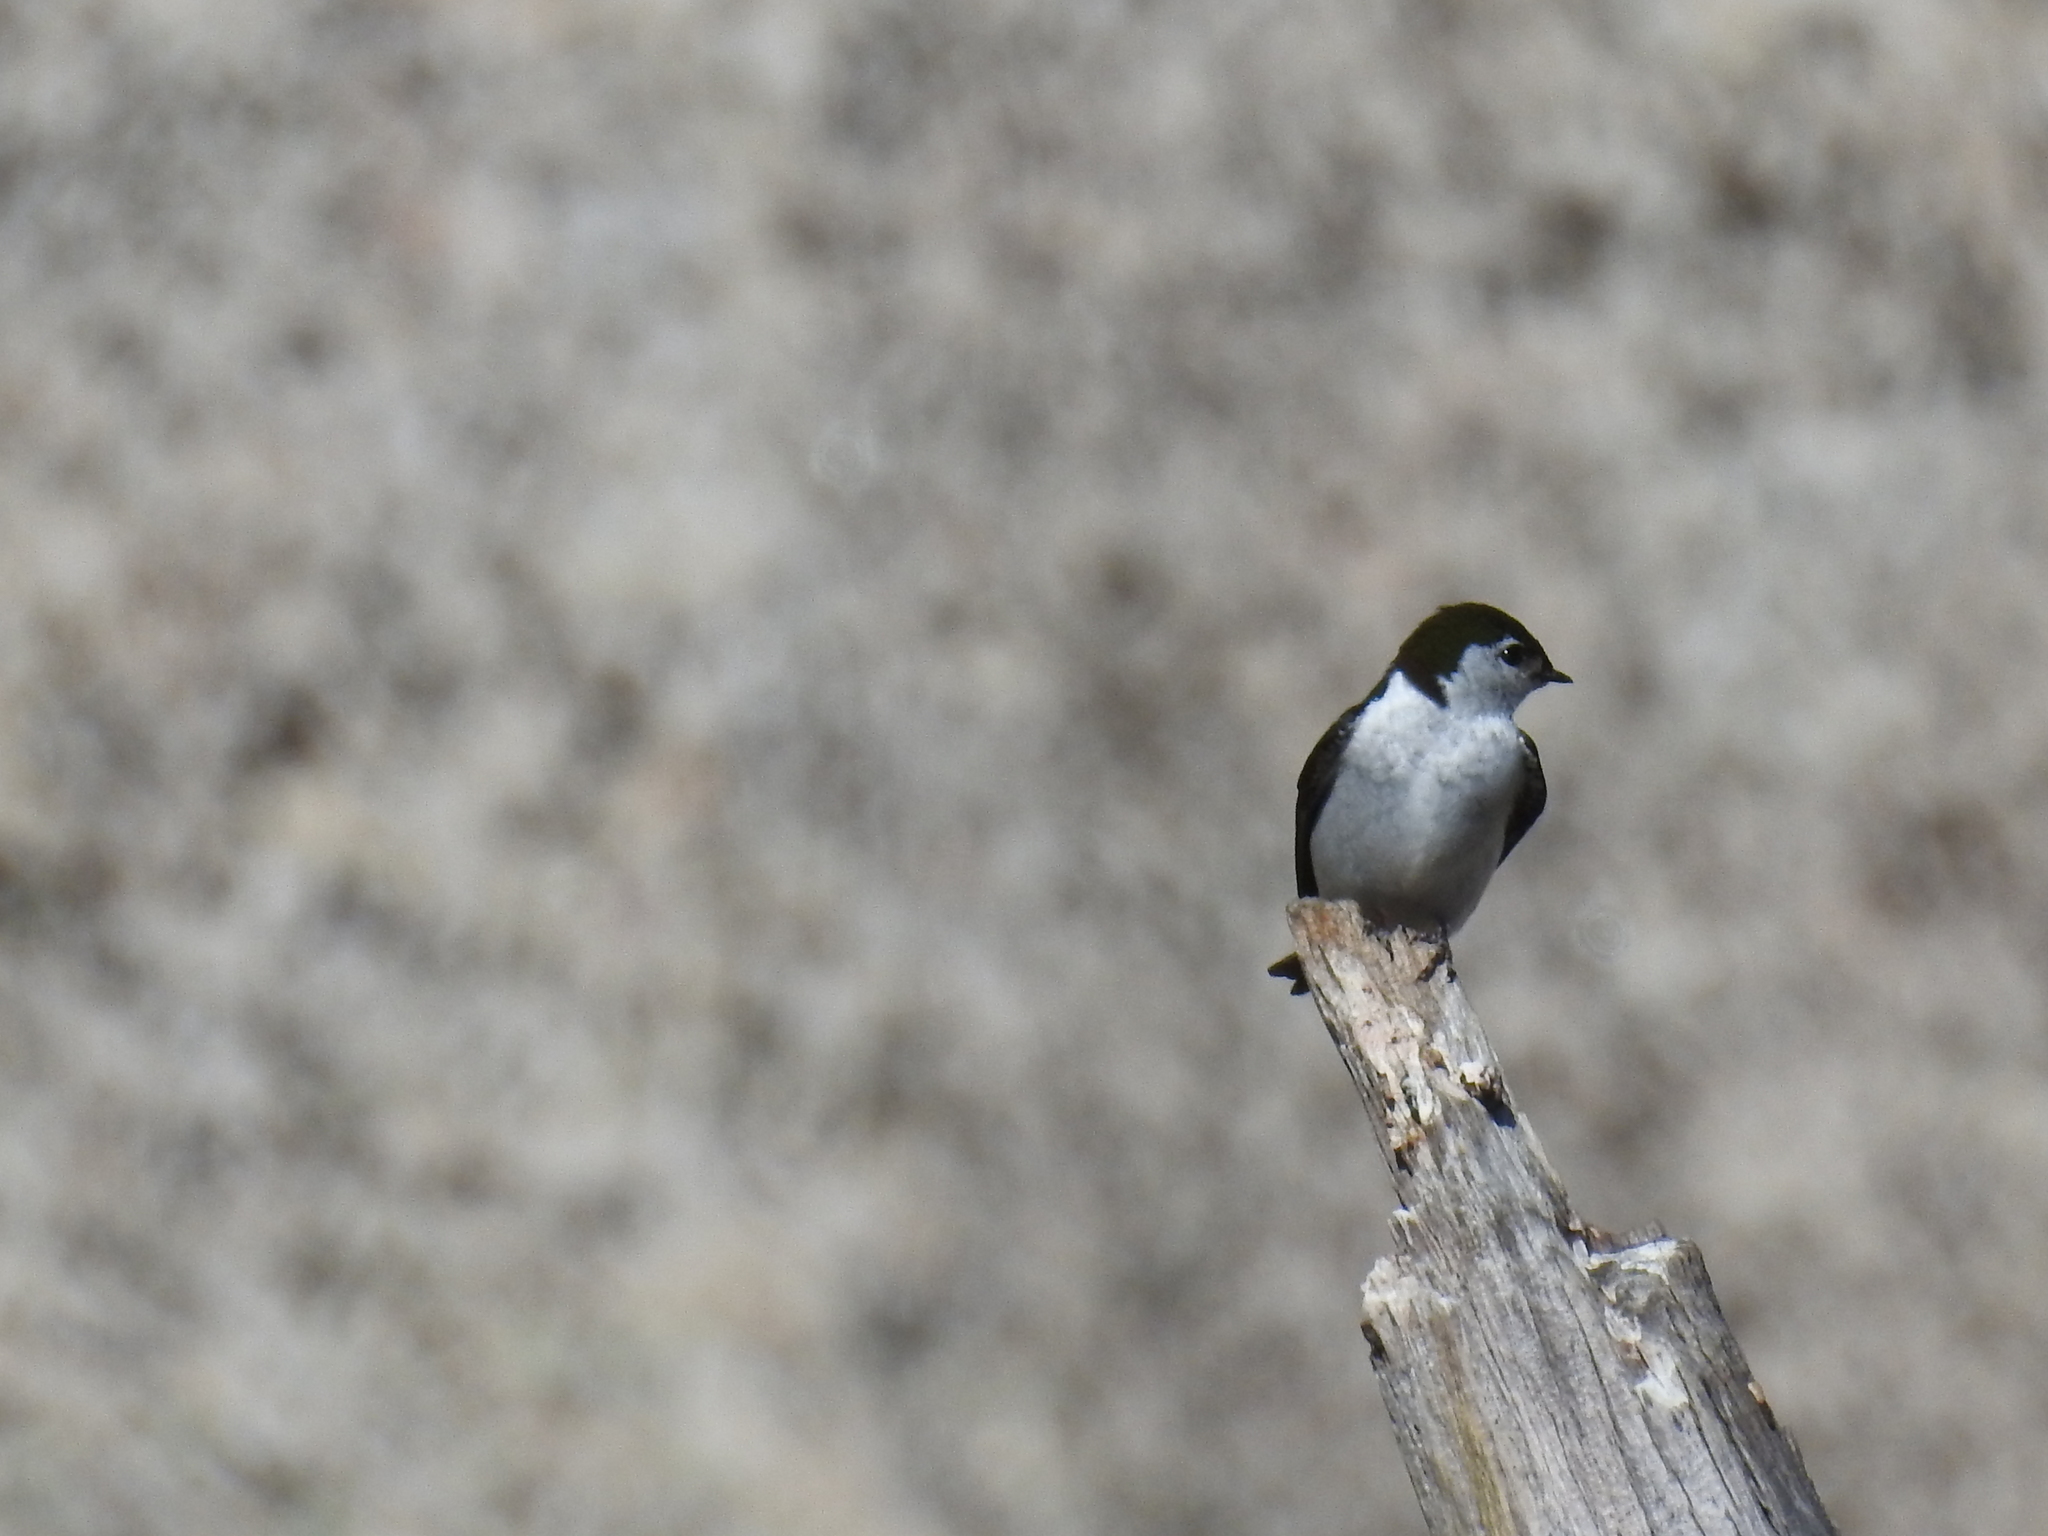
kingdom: Animalia
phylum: Chordata
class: Aves
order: Passeriformes
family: Hirundinidae
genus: Tachycineta
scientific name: Tachycineta thalassina
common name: Violet-green swallow
